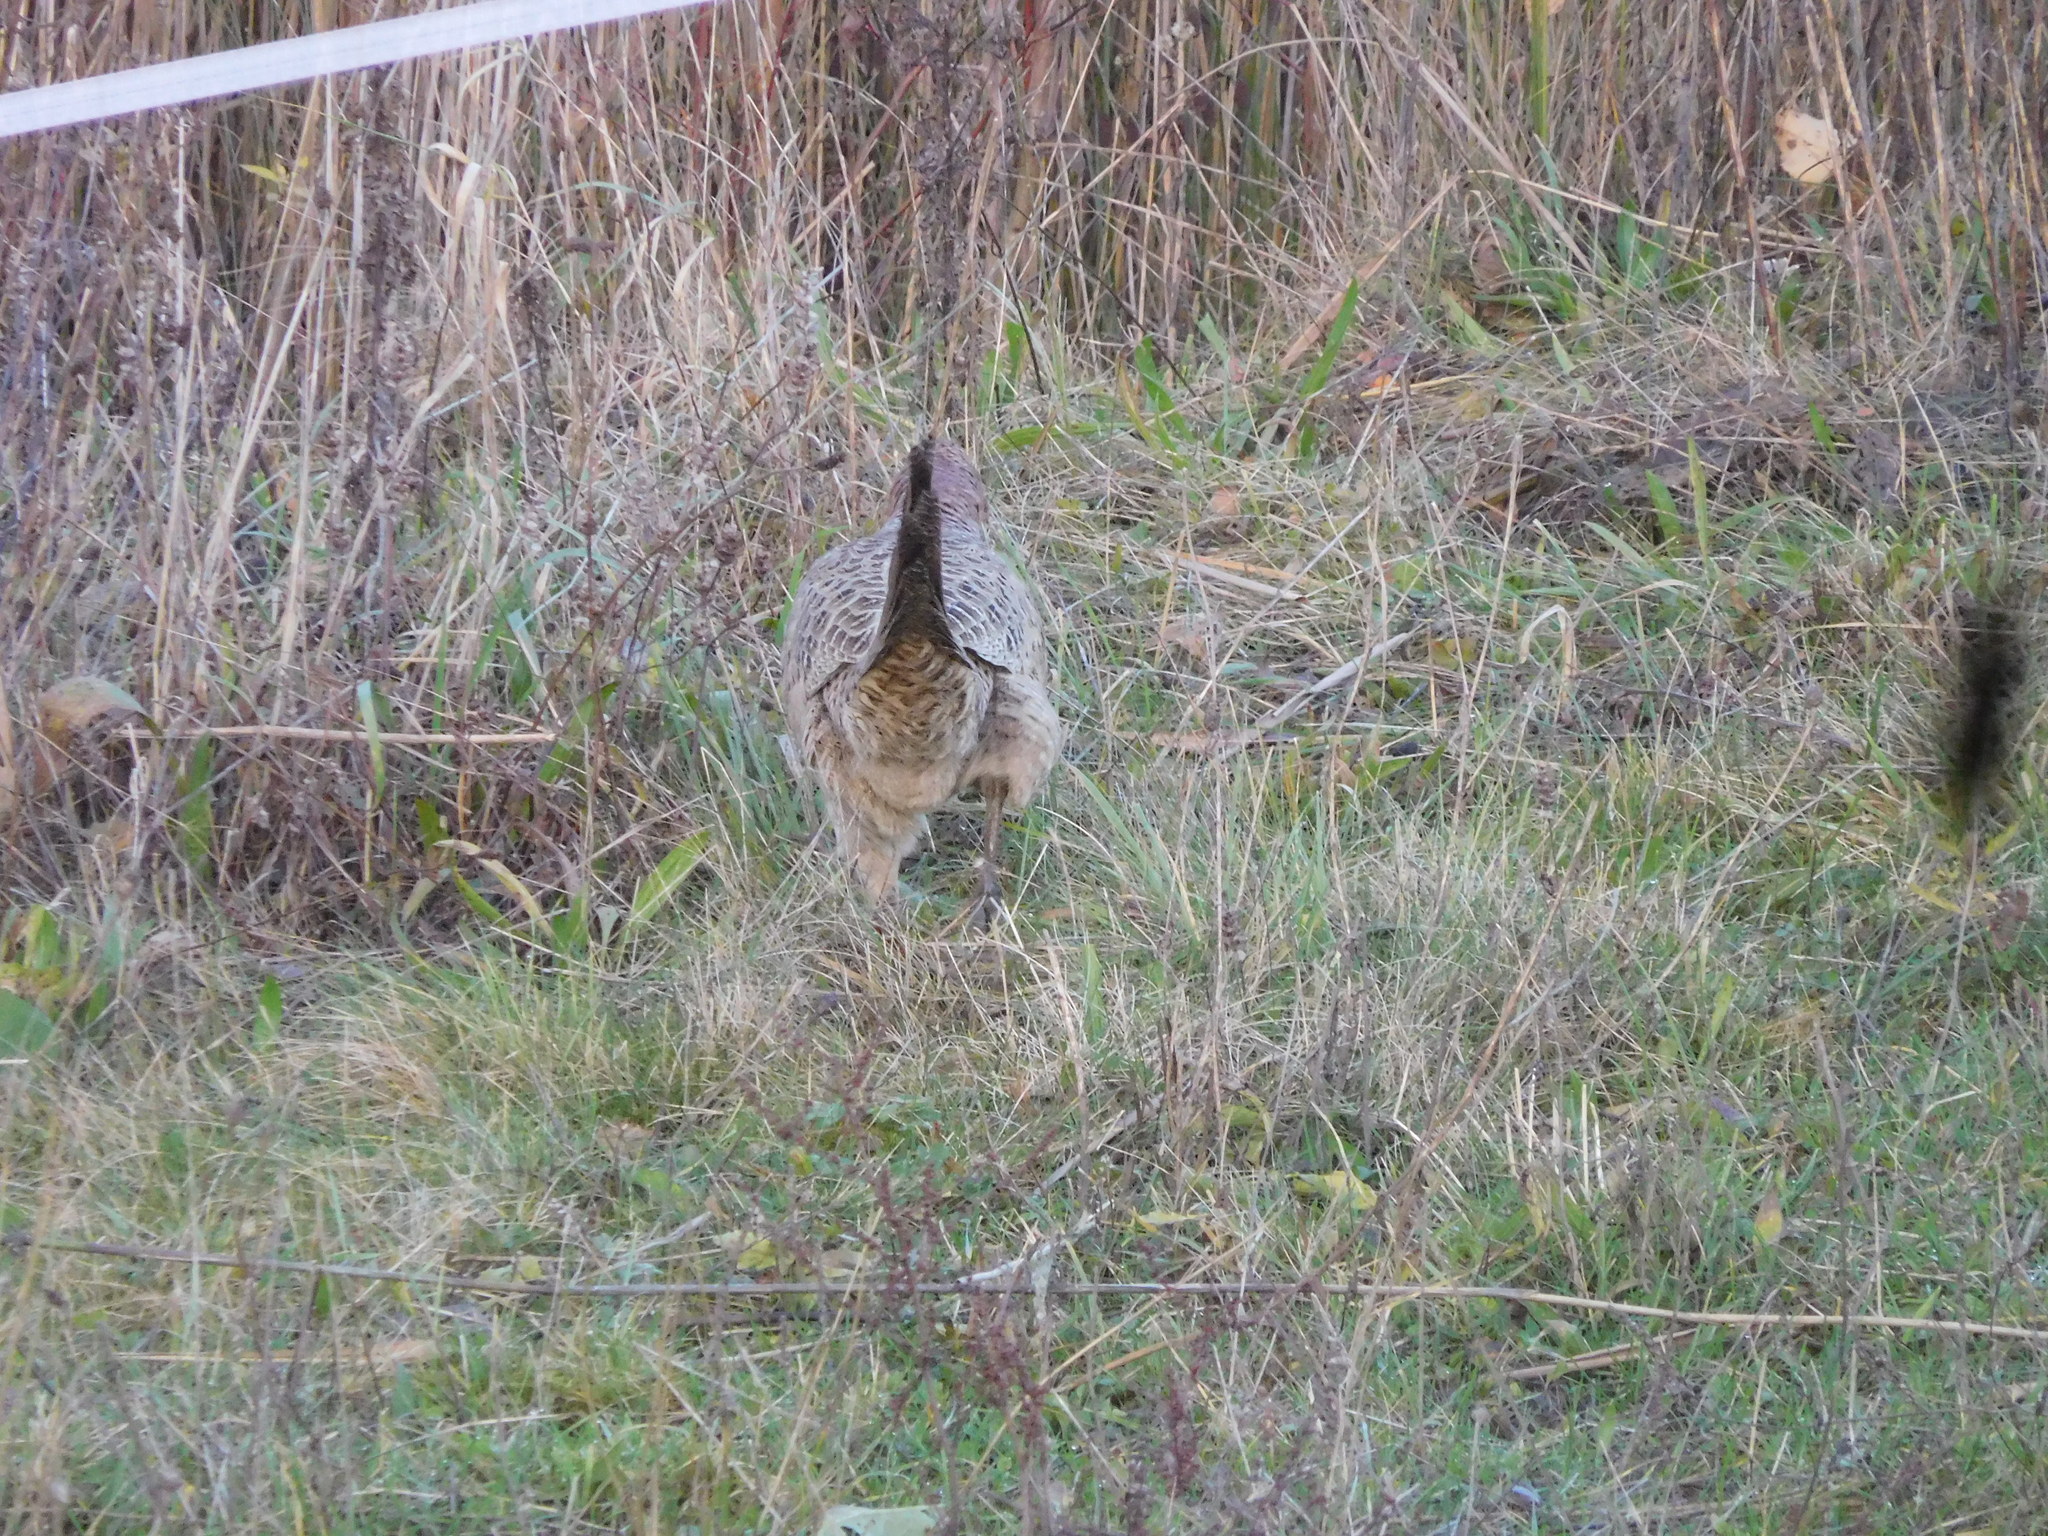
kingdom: Animalia
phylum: Chordata
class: Aves
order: Galliformes
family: Phasianidae
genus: Phasianus
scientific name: Phasianus colchicus
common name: Common pheasant
